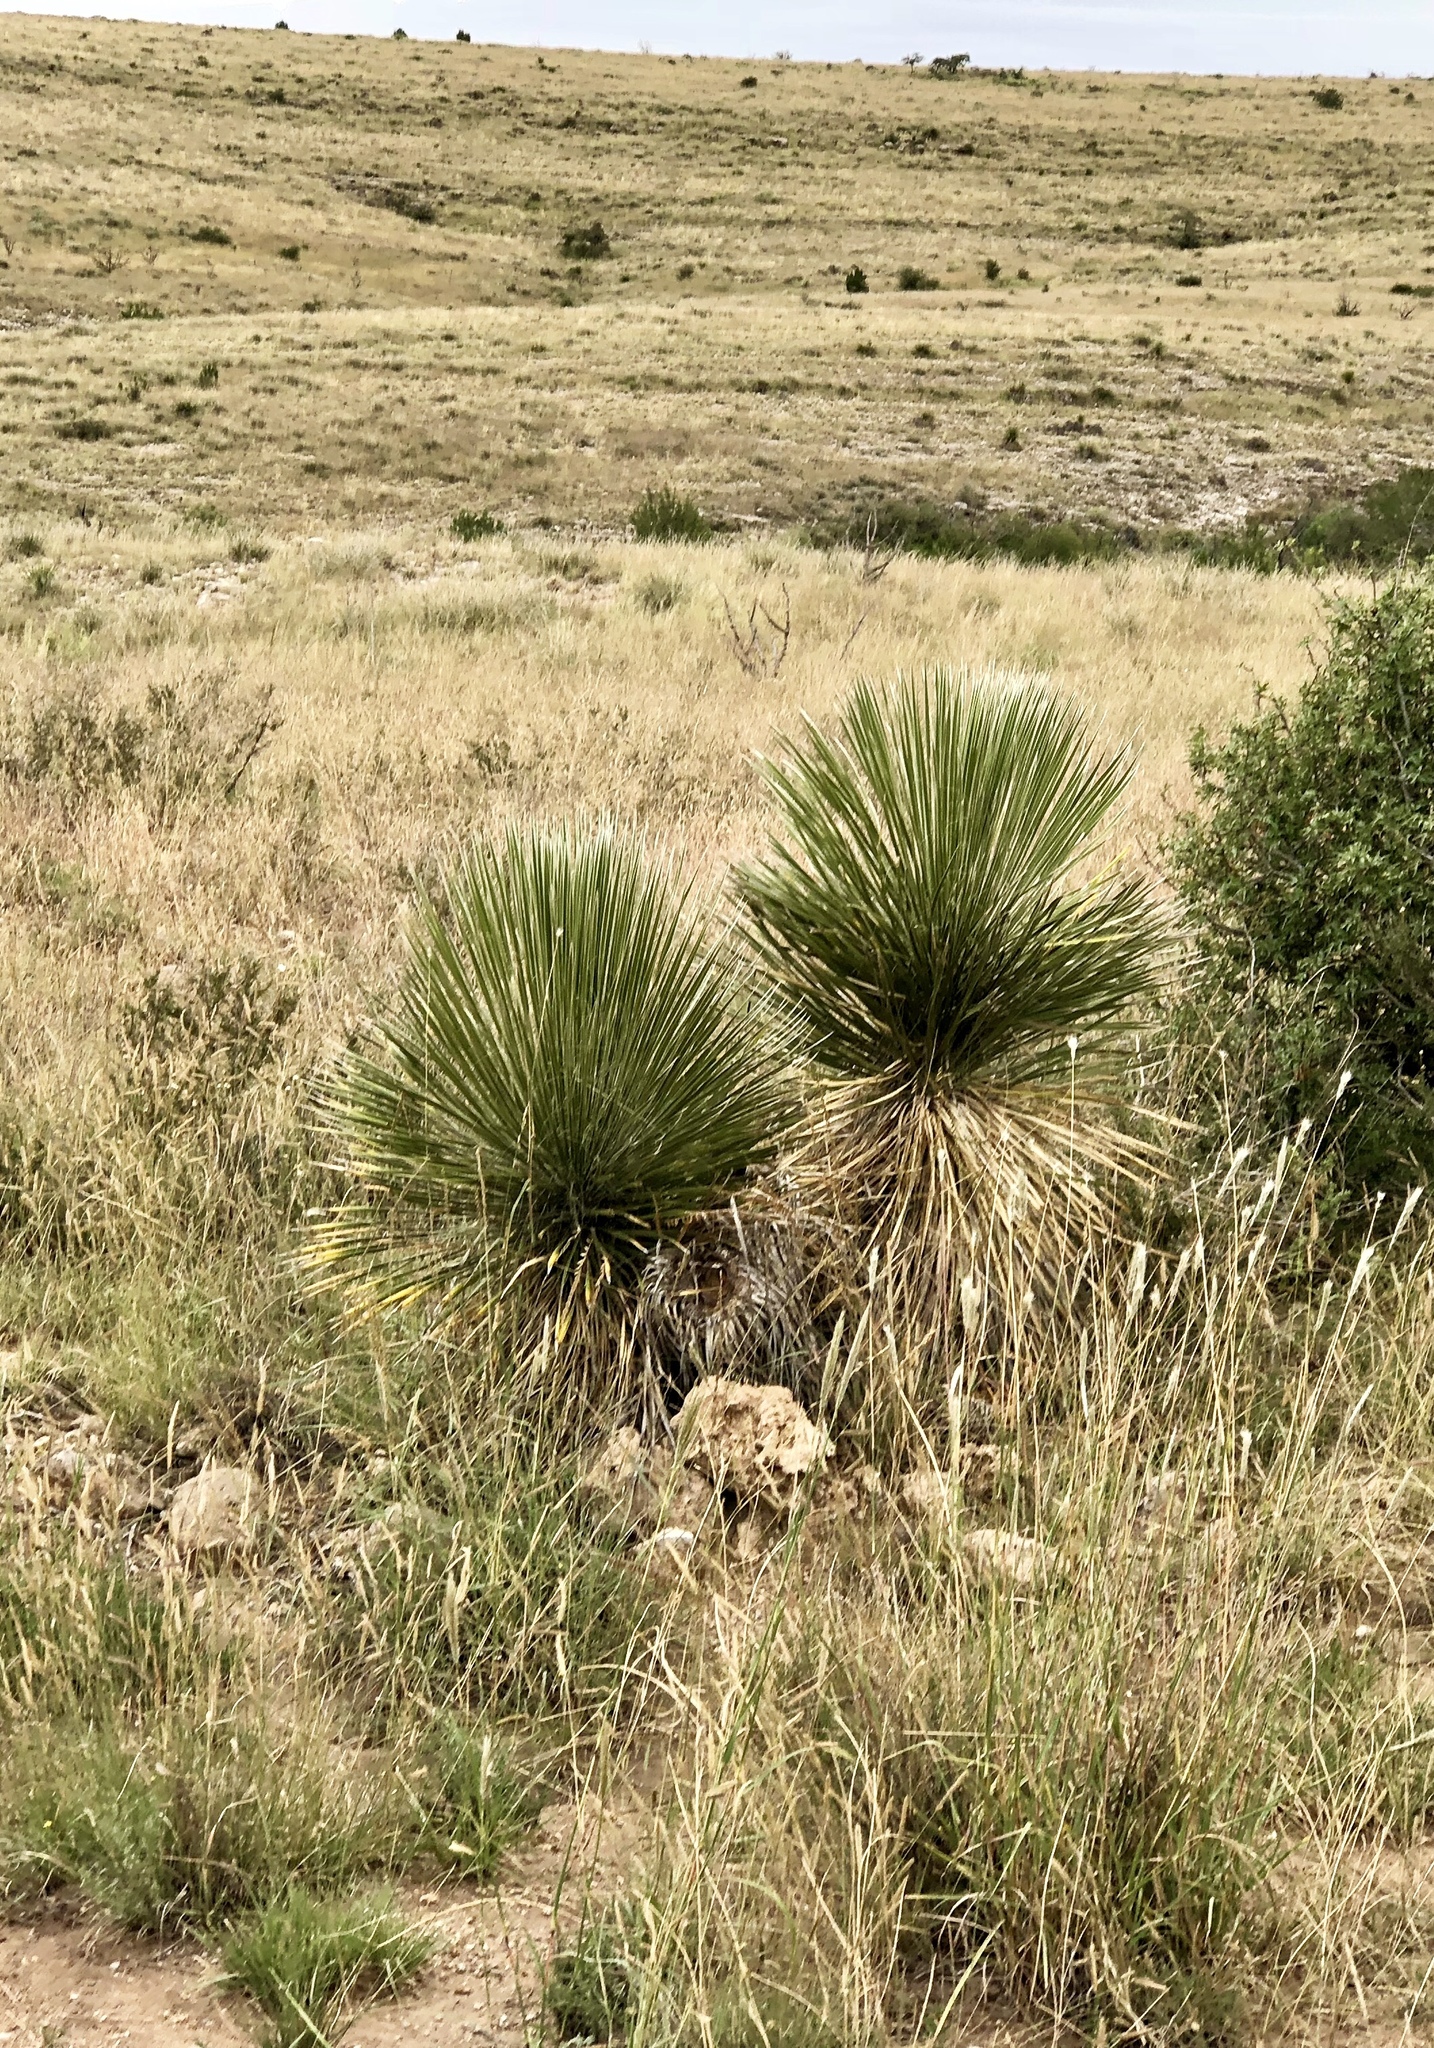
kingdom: Plantae
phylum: Tracheophyta
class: Liliopsida
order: Asparagales
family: Asparagaceae
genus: Yucca
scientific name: Yucca elata
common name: Palmella
